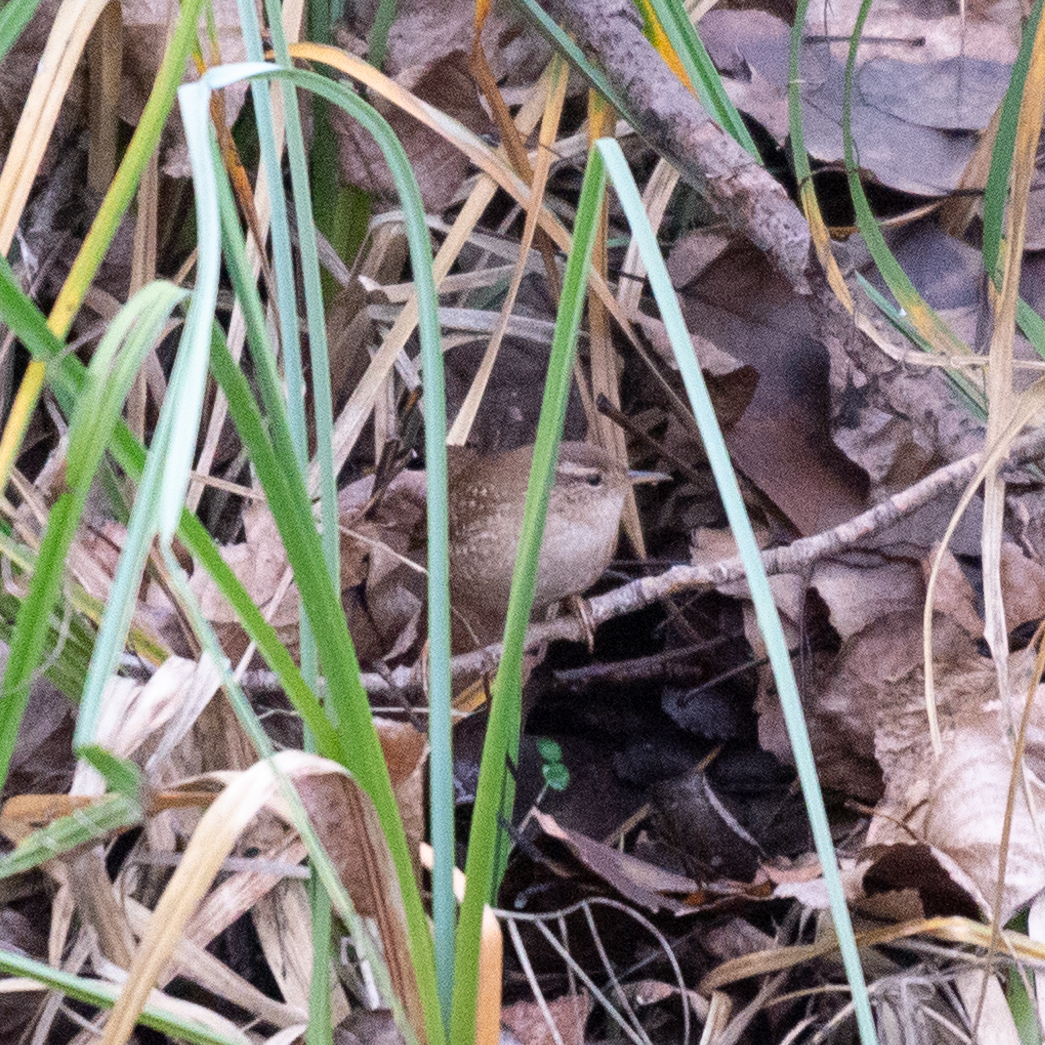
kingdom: Animalia
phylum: Chordata
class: Aves
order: Passeriformes
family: Troglodytidae
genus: Troglodytes
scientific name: Troglodytes troglodytes
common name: Eurasian wren
